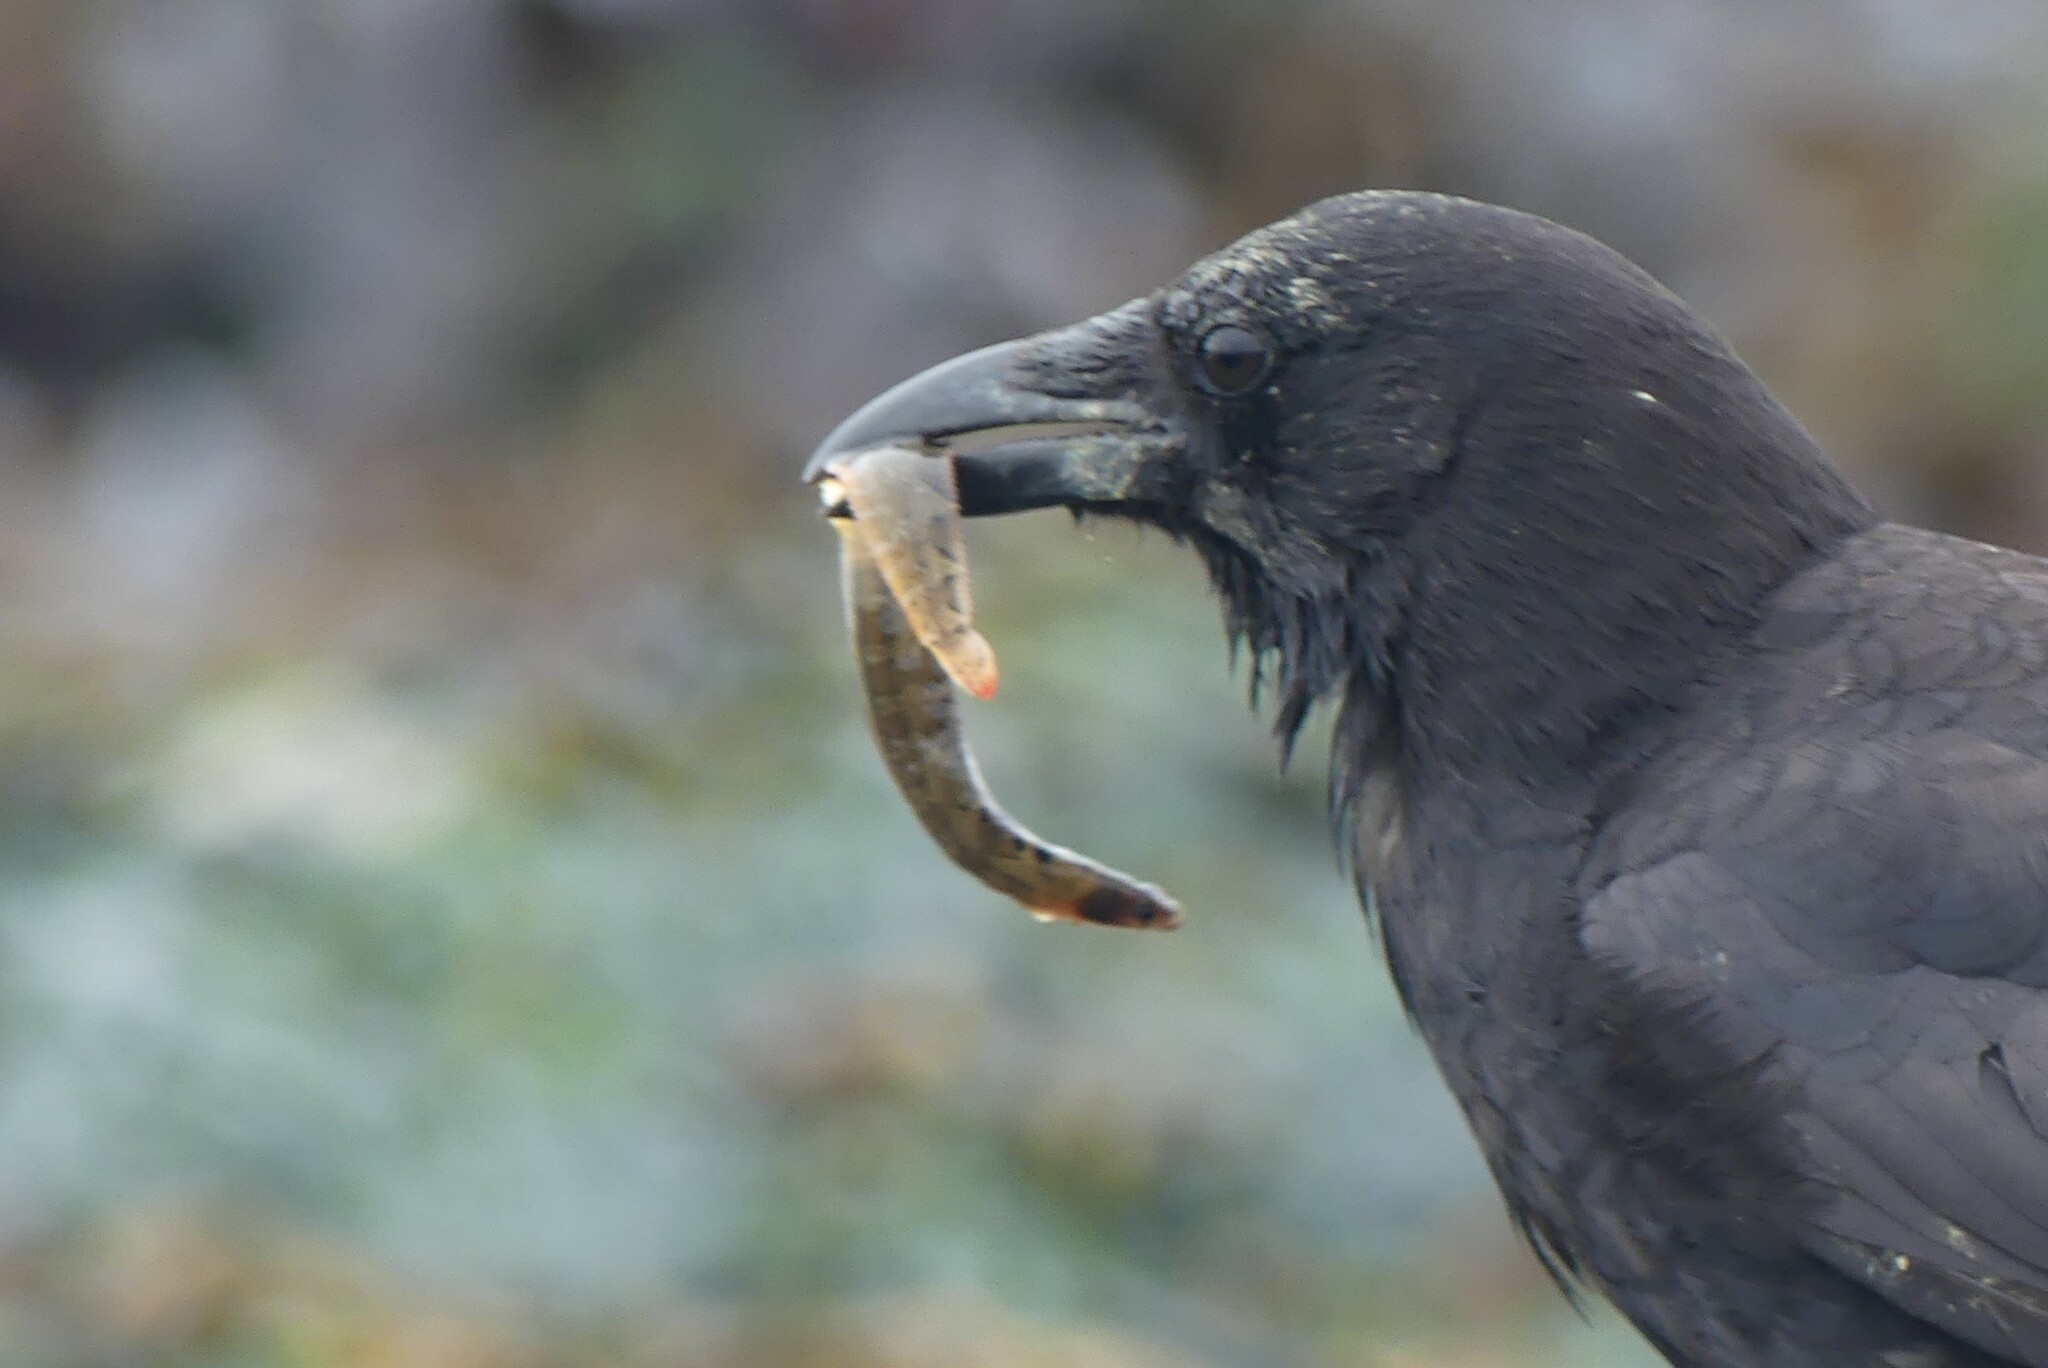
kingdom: Animalia
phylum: Chordata
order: Perciformes
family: Pholidae
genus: Pholis
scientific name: Pholis ornata
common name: Saddleback gunnel
